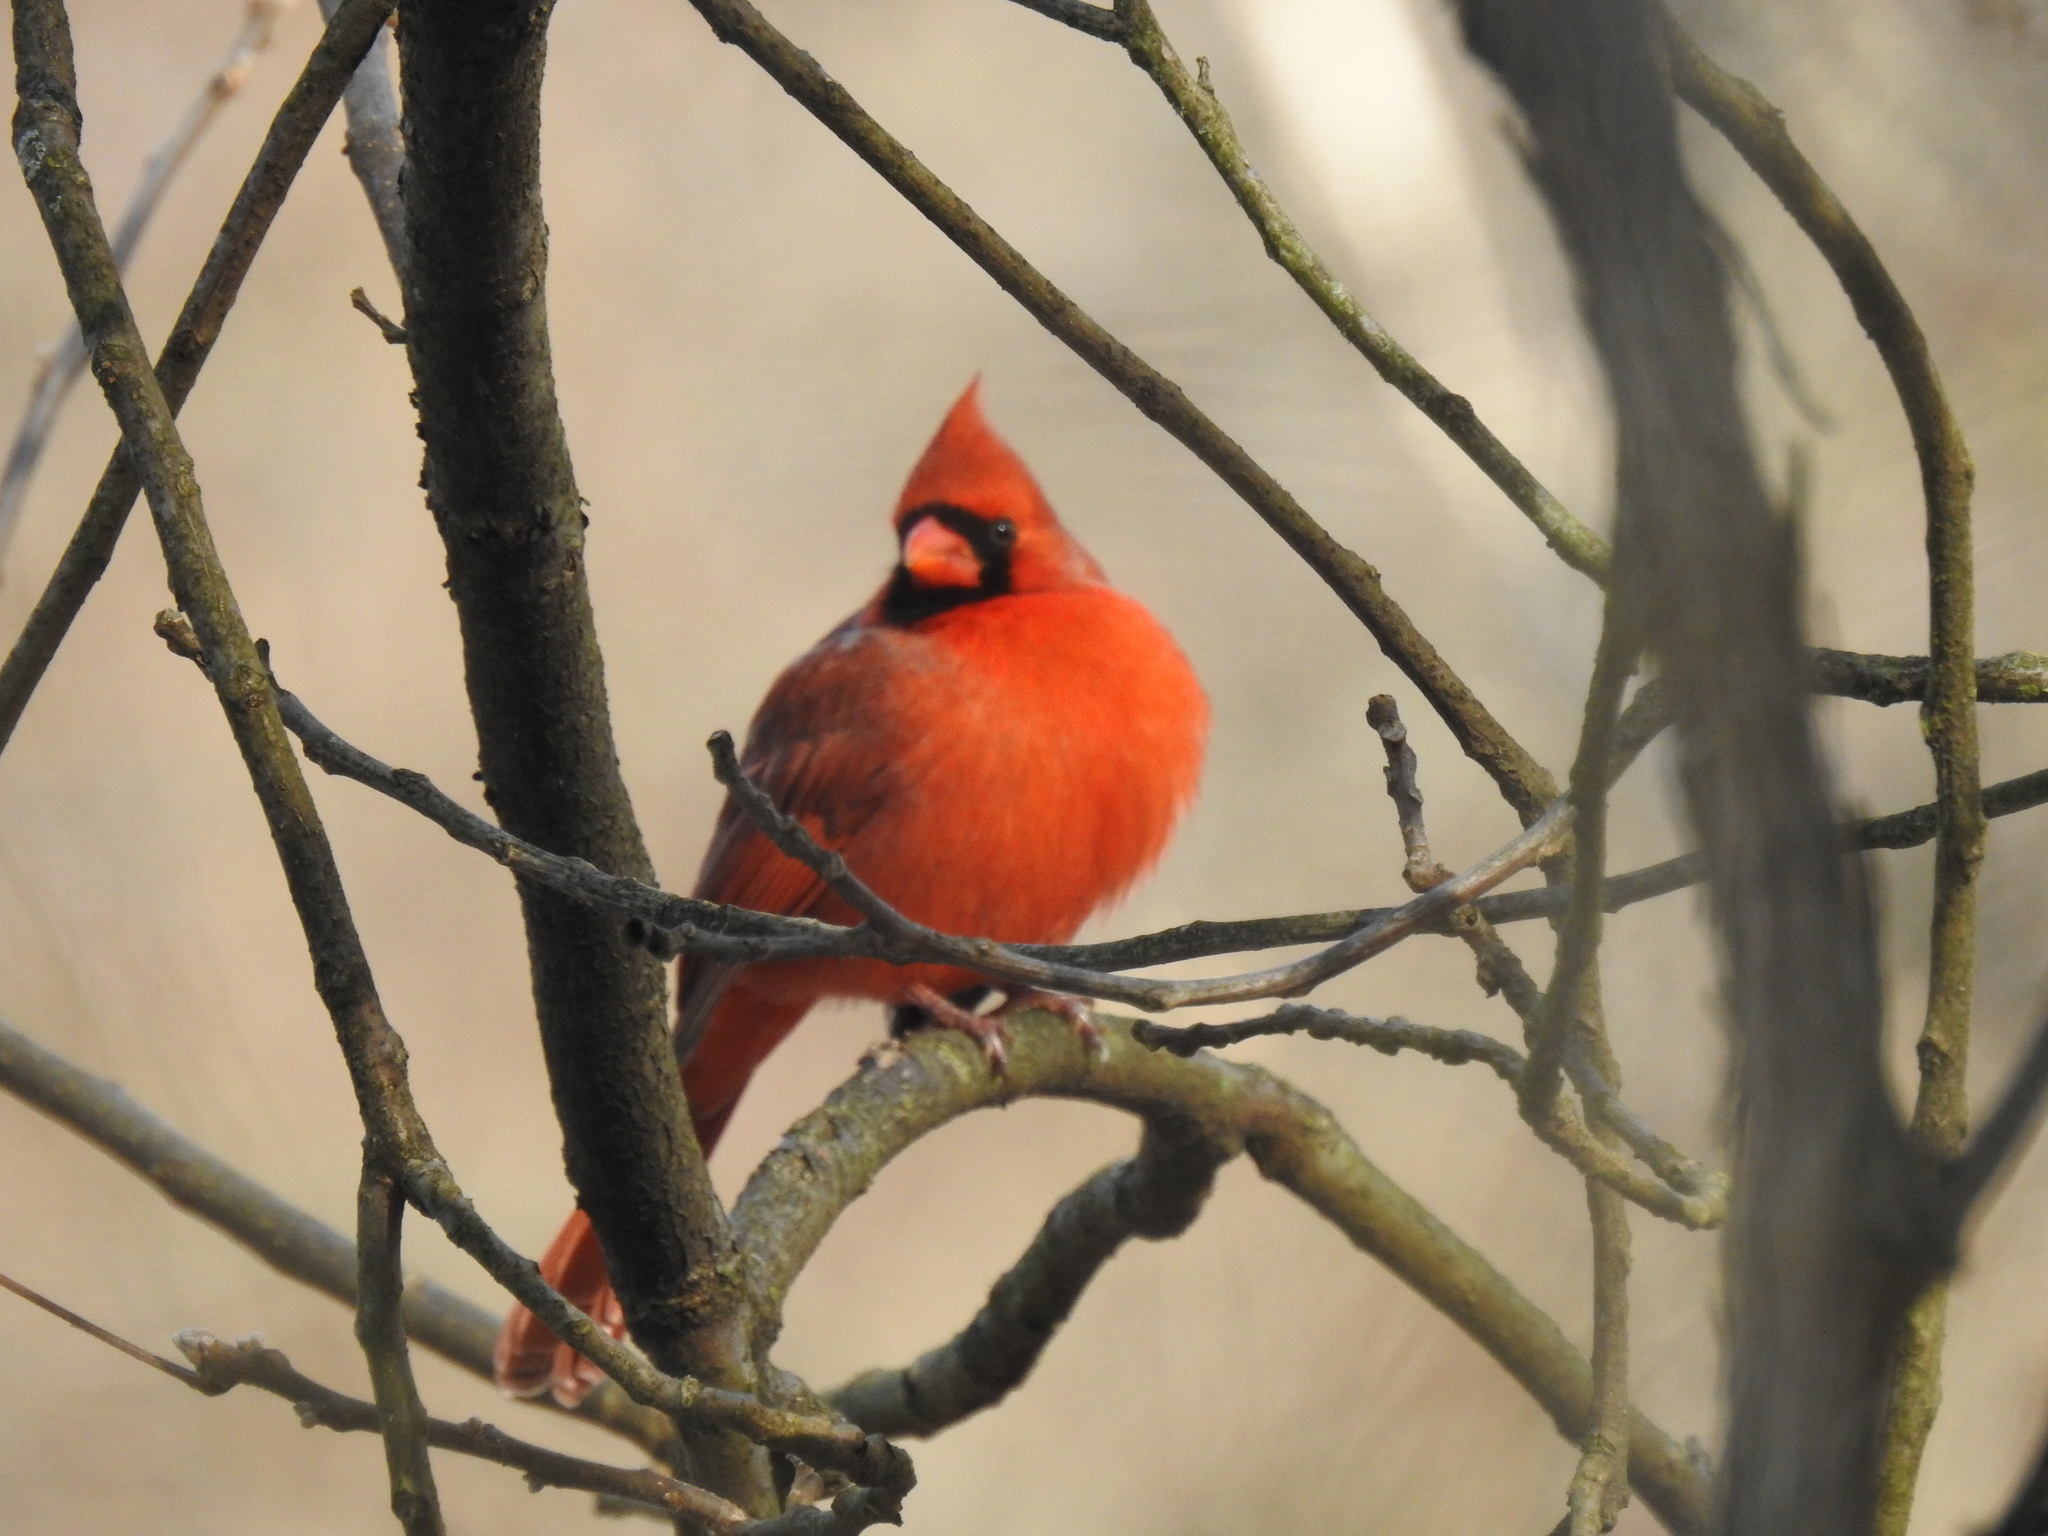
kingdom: Animalia
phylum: Chordata
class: Aves
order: Passeriformes
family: Cardinalidae
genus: Cardinalis
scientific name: Cardinalis cardinalis
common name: Northern cardinal
